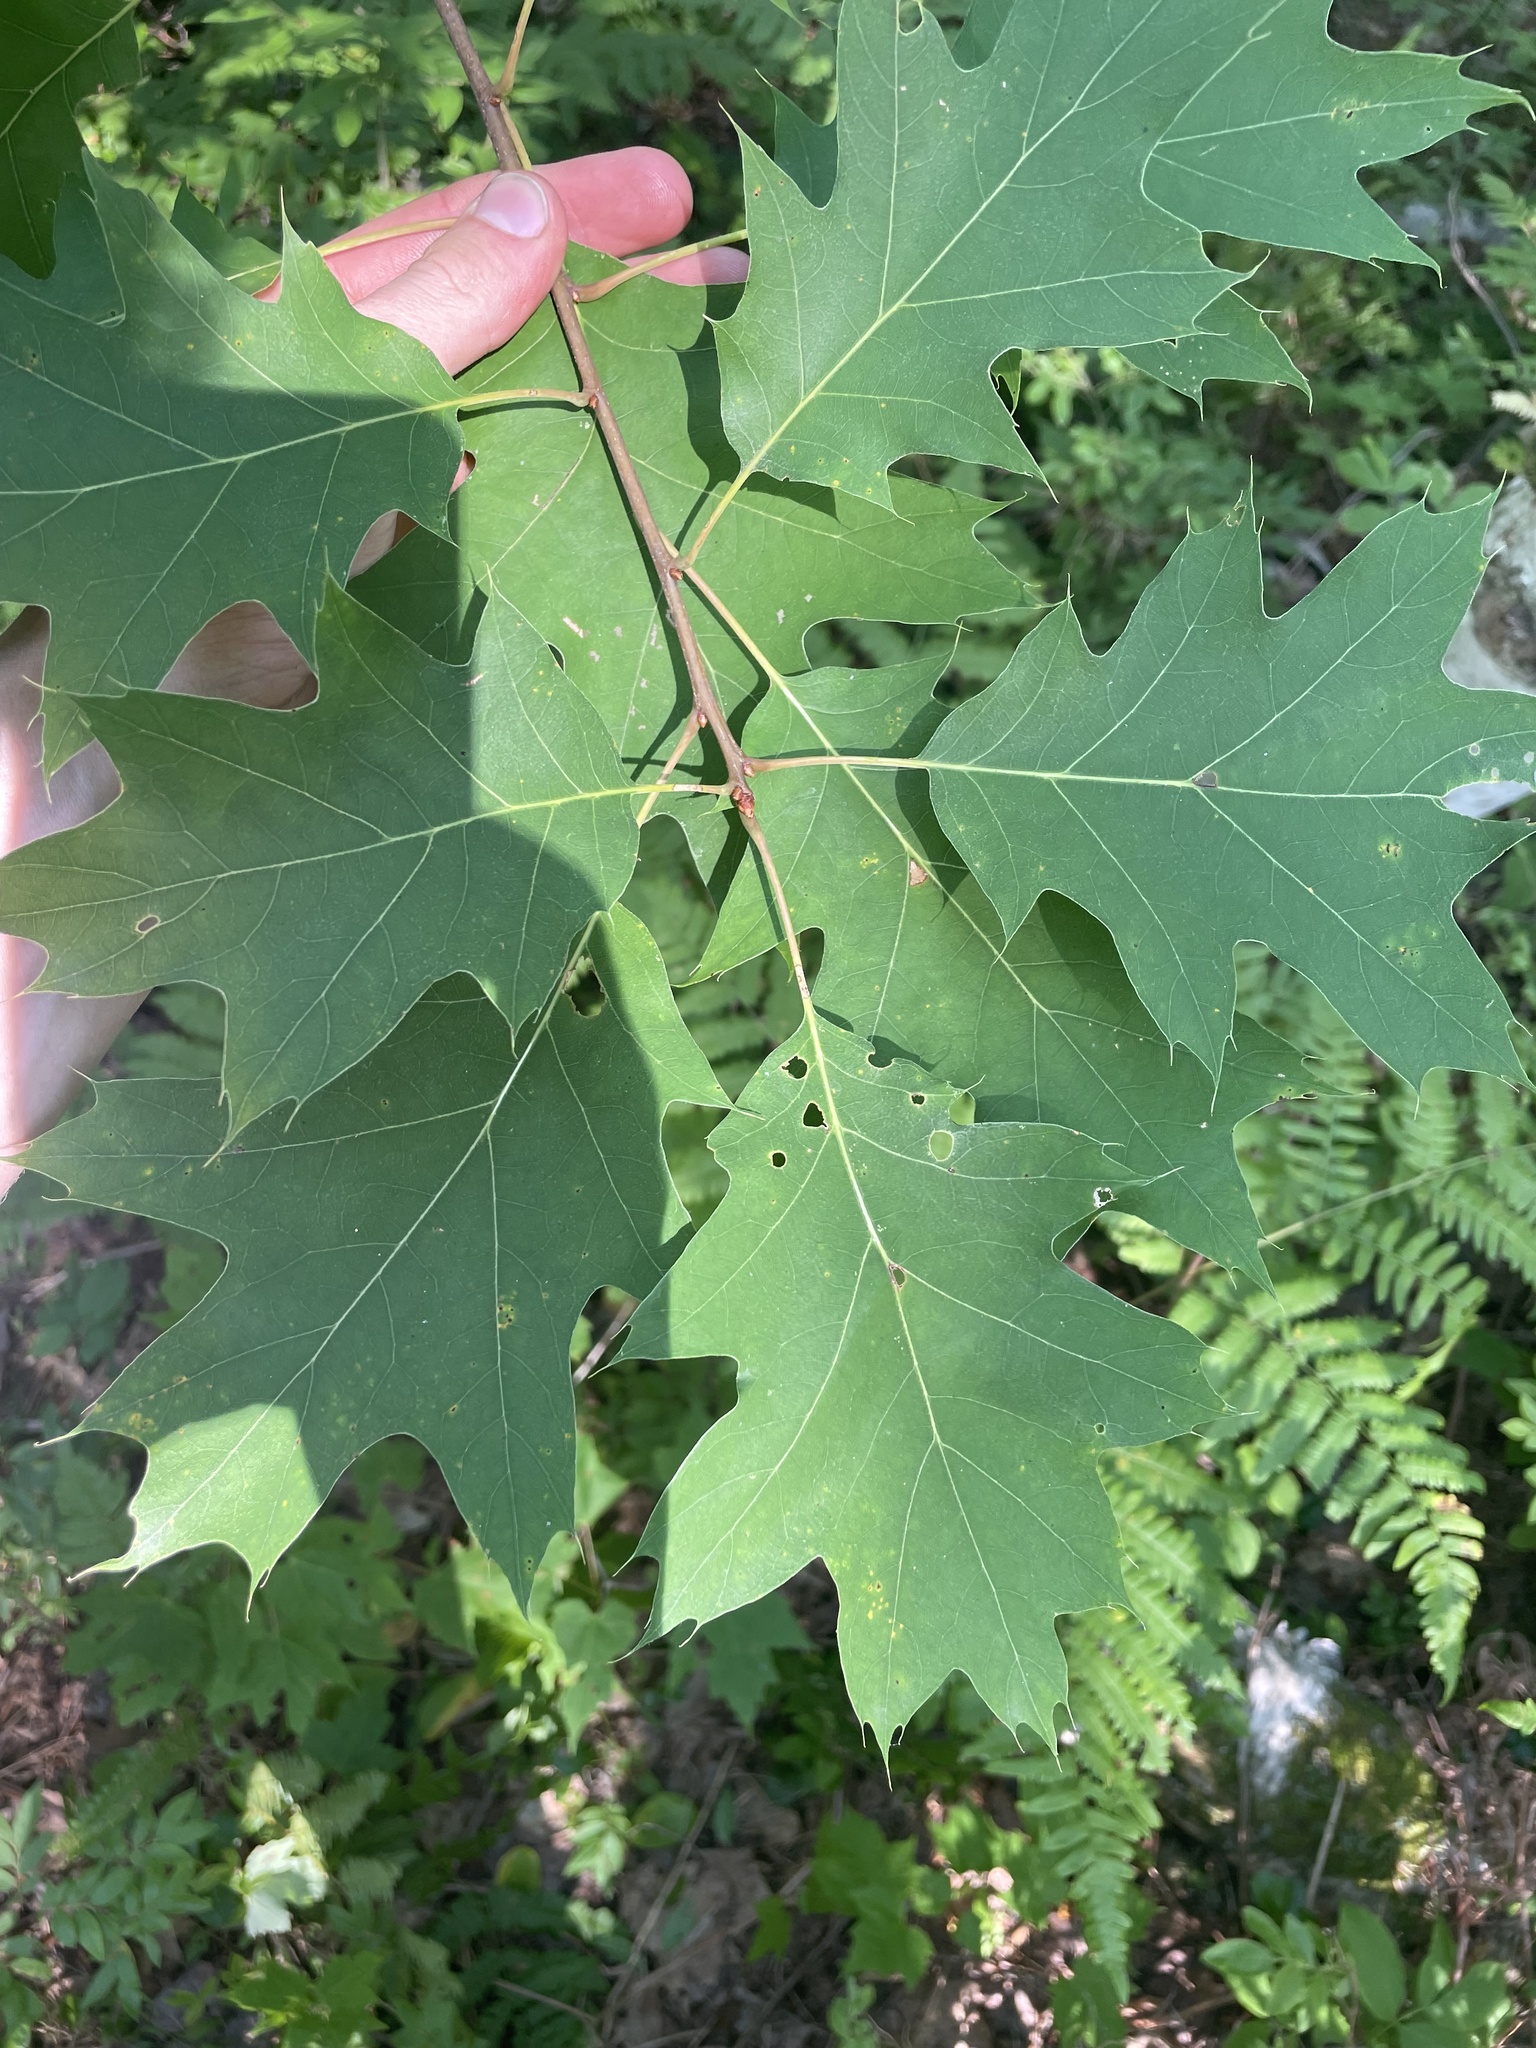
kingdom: Plantae
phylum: Tracheophyta
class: Magnoliopsida
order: Fagales
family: Fagaceae
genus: Quercus
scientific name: Quercus rubra
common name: Red oak
